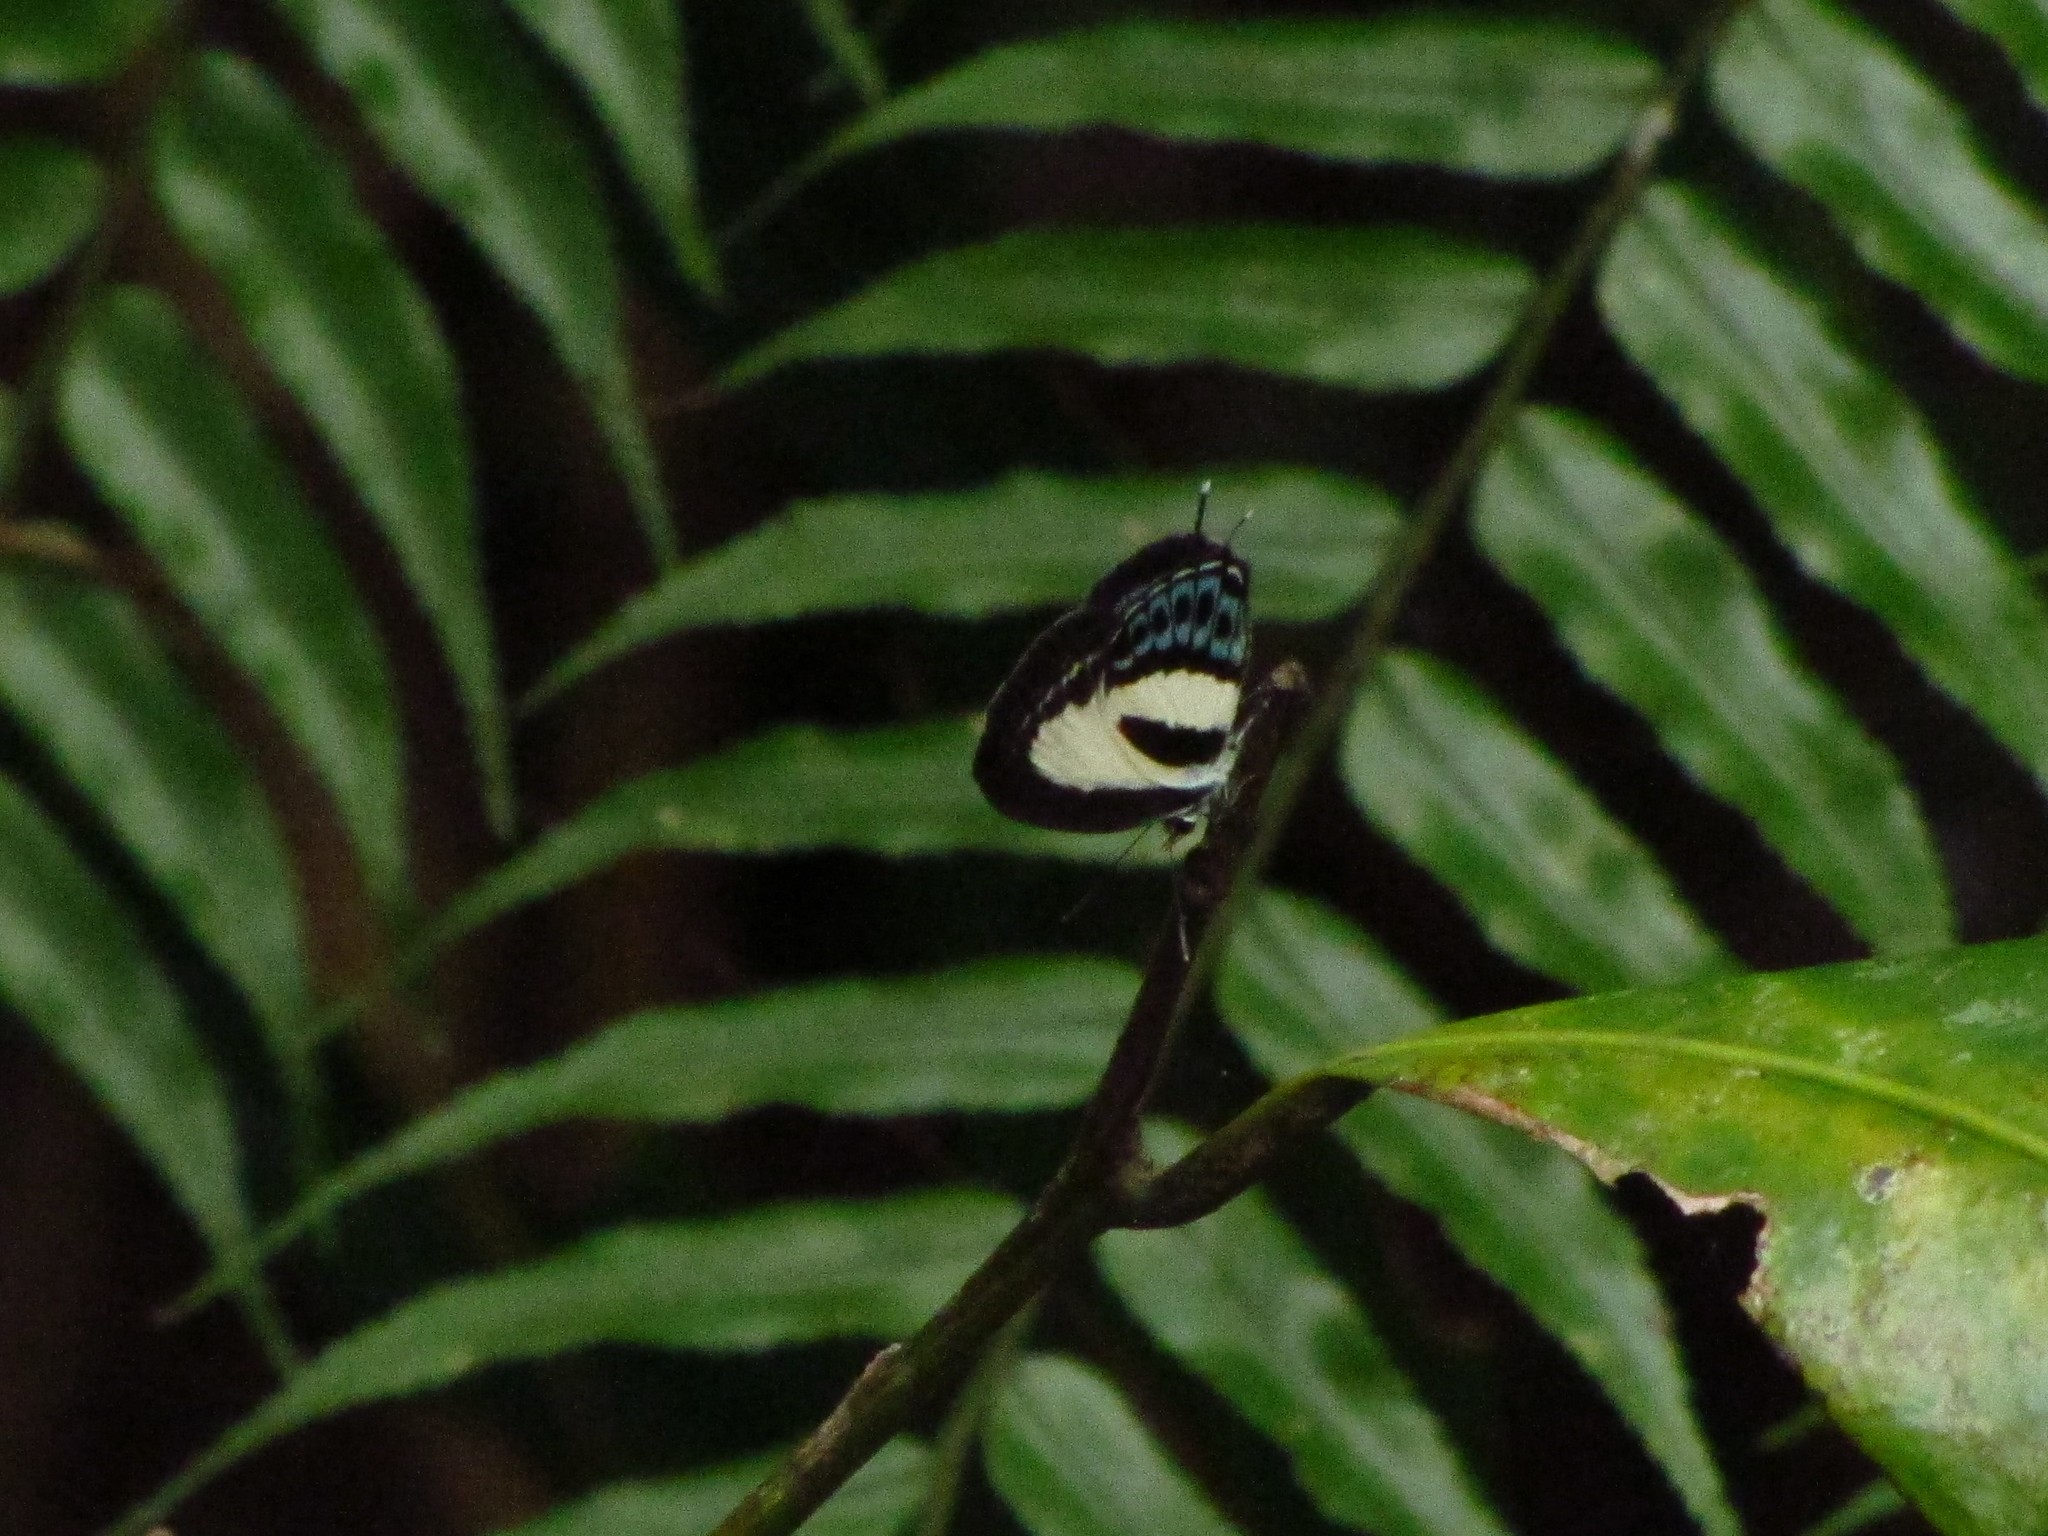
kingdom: Animalia
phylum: Arthropoda
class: Insecta
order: Lepidoptera
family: Lycaenidae
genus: Nacaduba
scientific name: Nacaduba cyanea
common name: Tailed green-banded line blue
